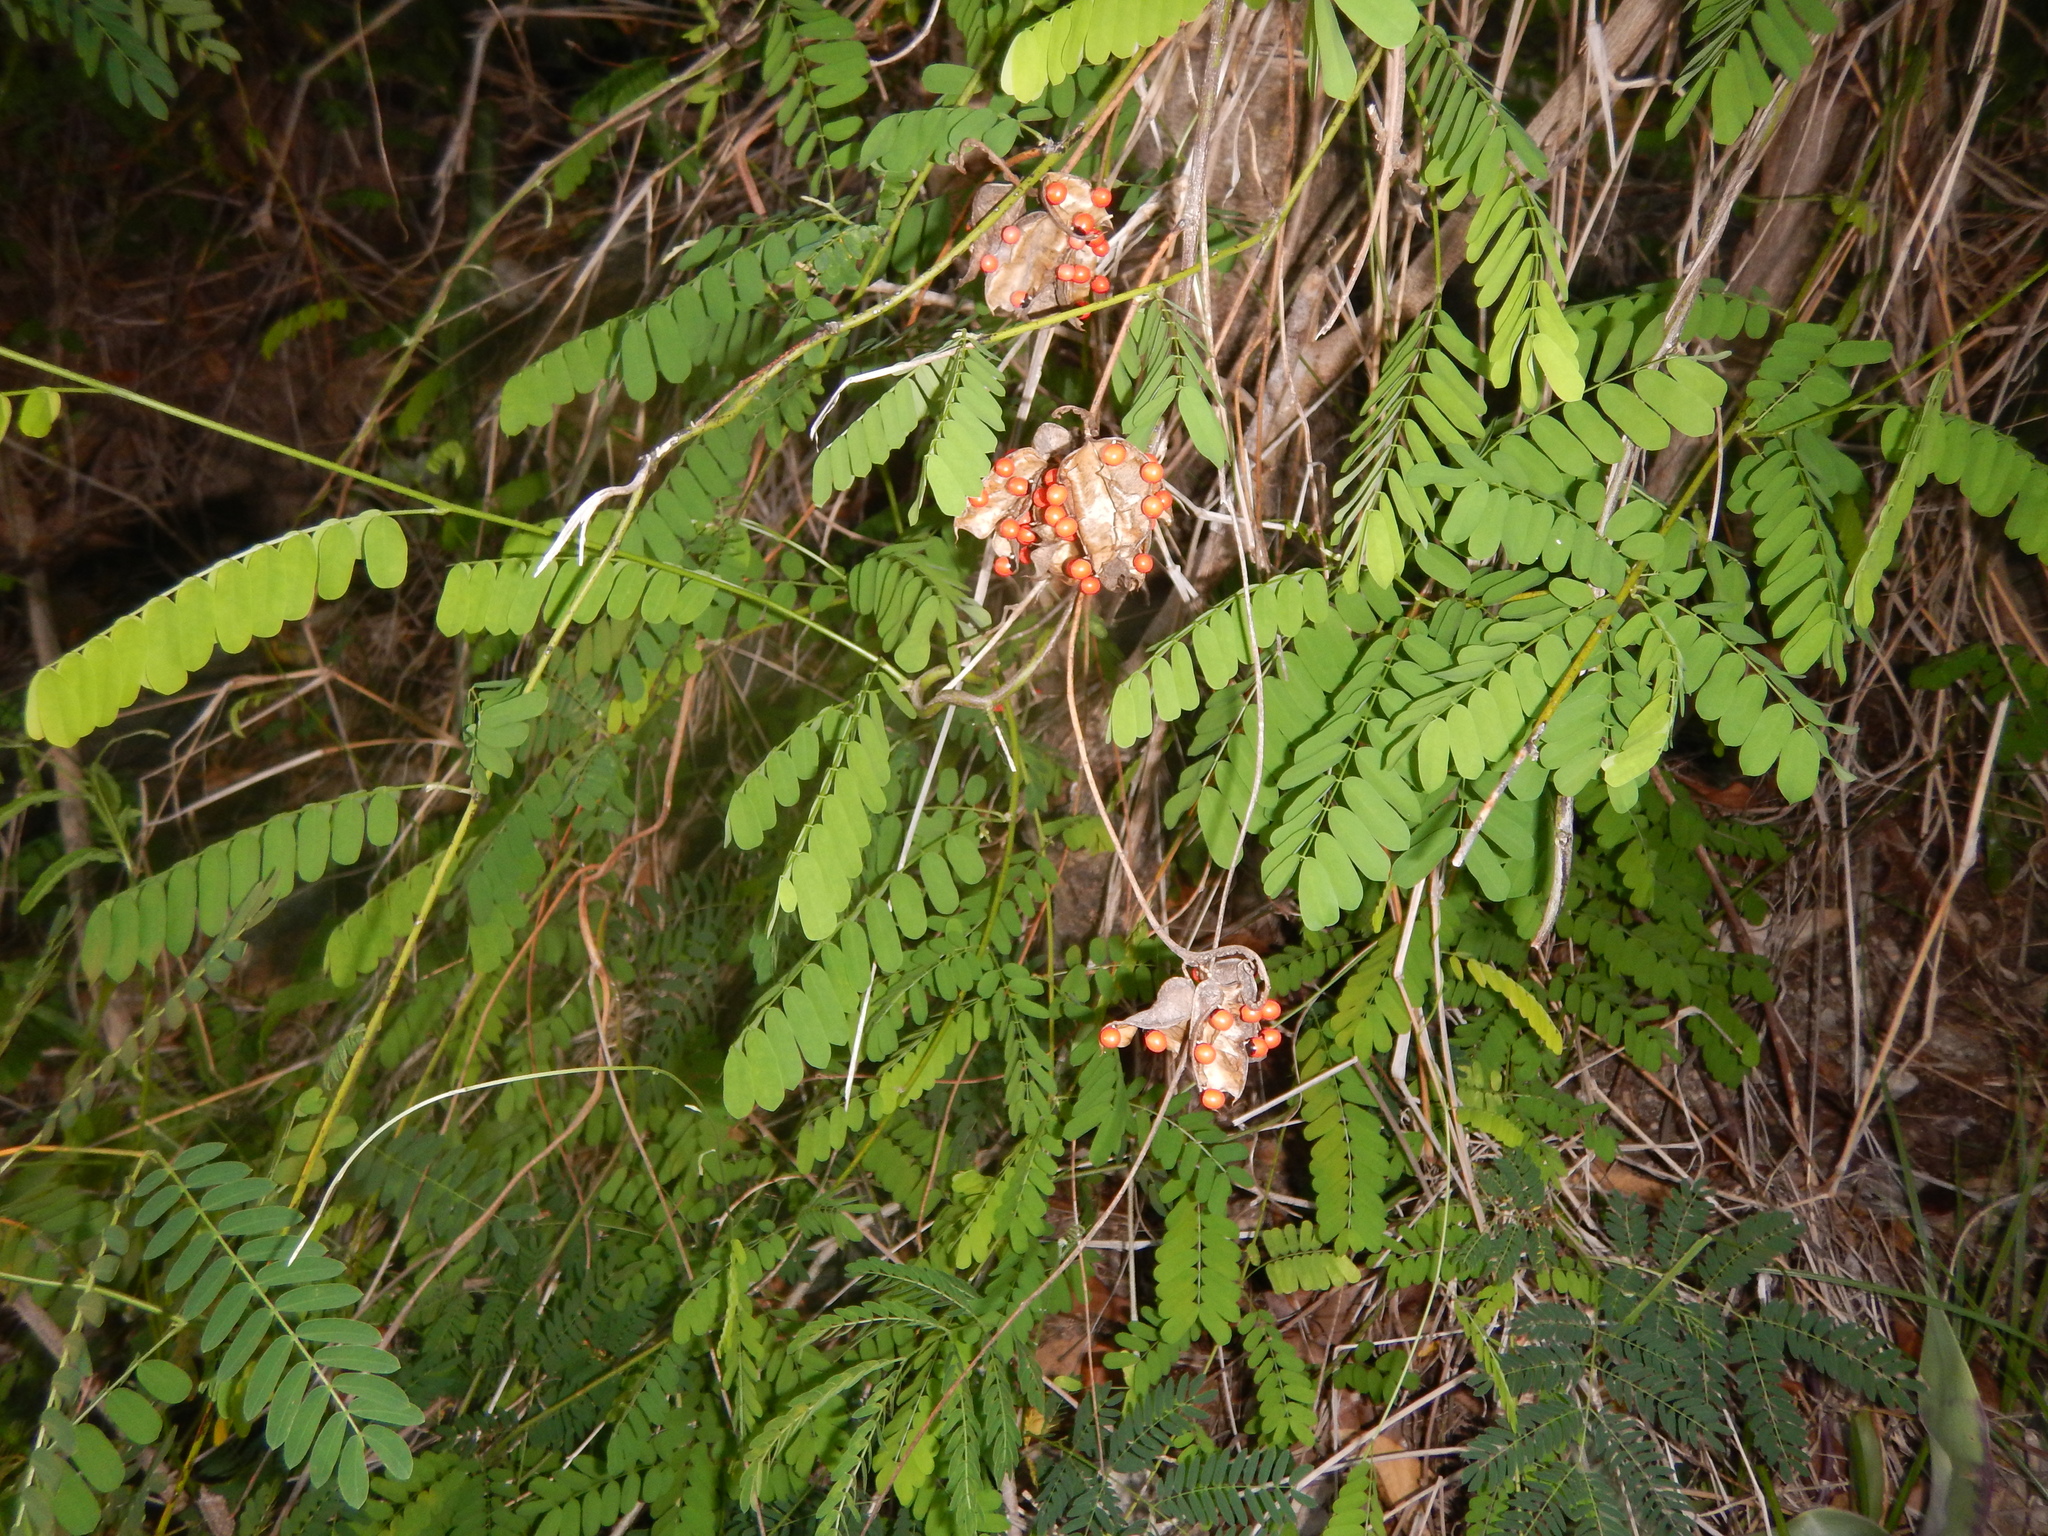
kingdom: Plantae
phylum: Tracheophyta
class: Magnoliopsida
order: Fabales
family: Fabaceae
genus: Abrus
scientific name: Abrus precatorius
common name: Rosarypea
